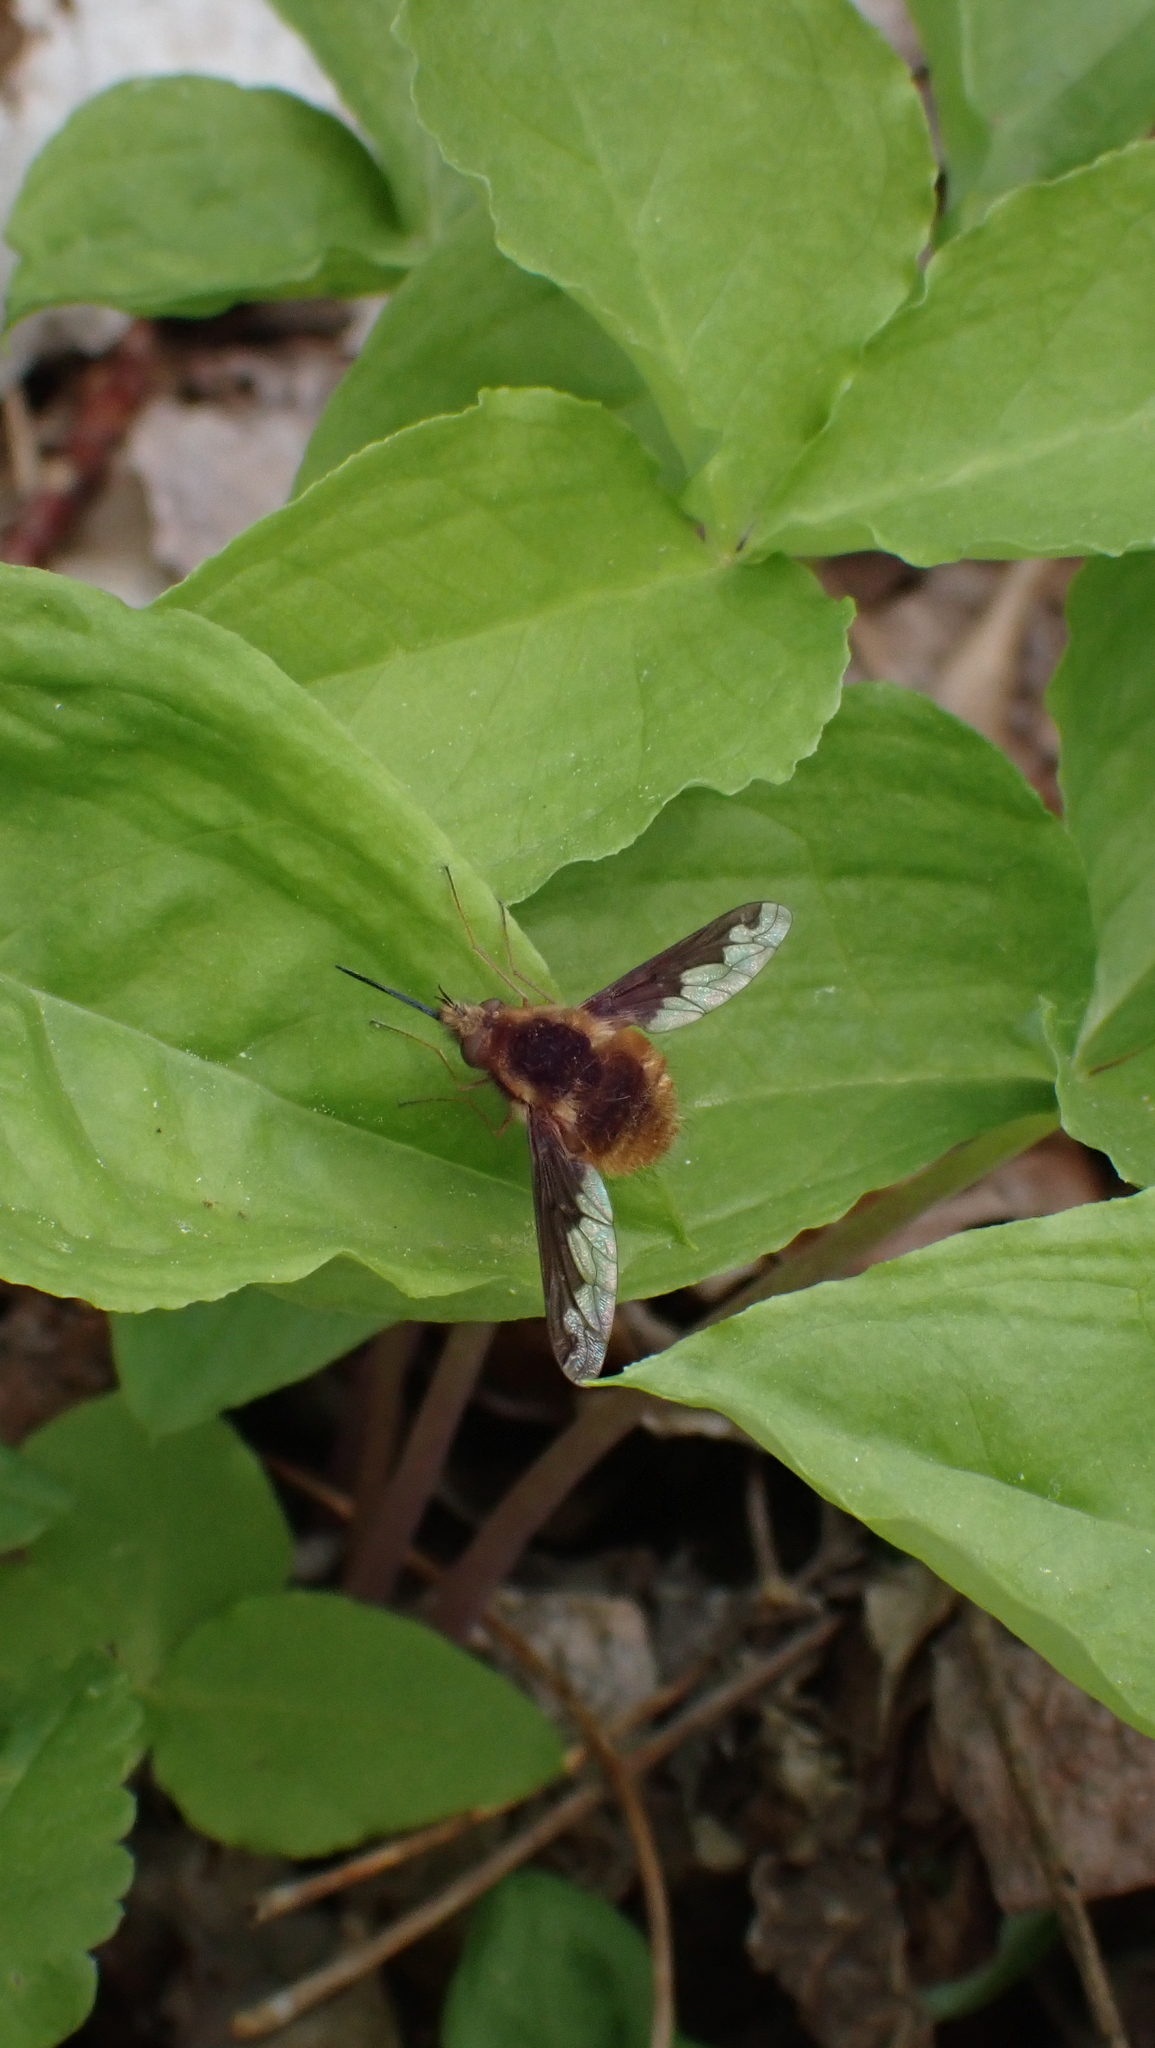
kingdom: Animalia
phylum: Arthropoda
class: Insecta
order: Diptera
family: Bombyliidae
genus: Bombylius
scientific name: Bombylius major
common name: Bee fly
